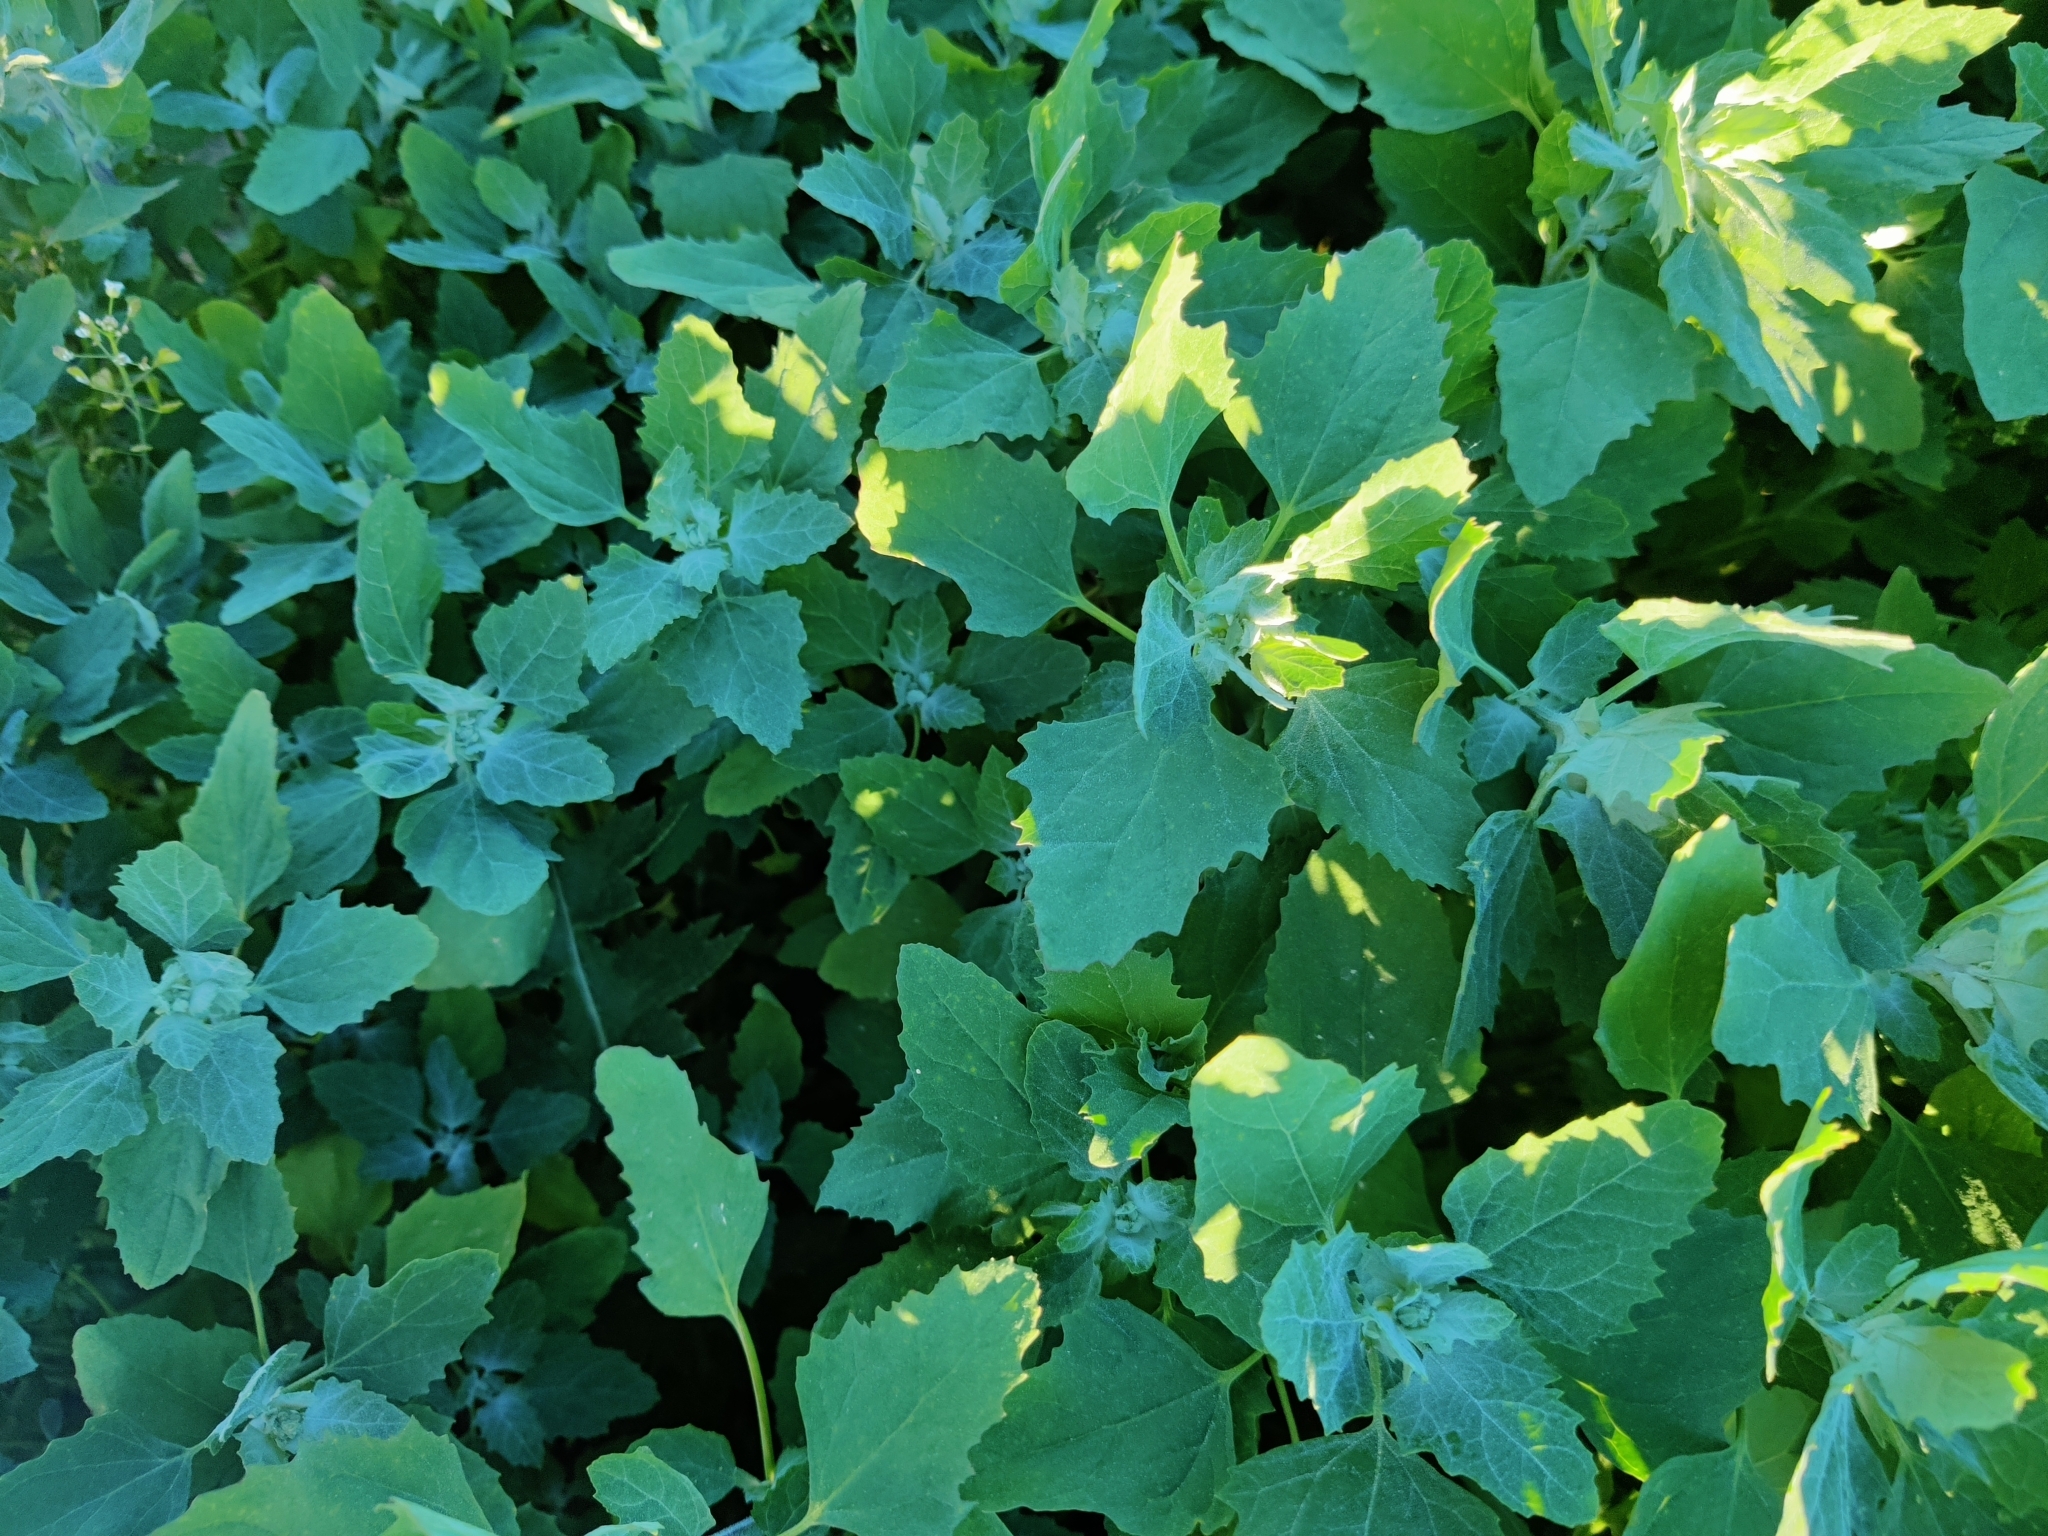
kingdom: Plantae
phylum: Tracheophyta
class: Magnoliopsida
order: Caryophyllales
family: Amaranthaceae
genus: Chenopodium
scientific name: Chenopodium album
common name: Fat-hen
